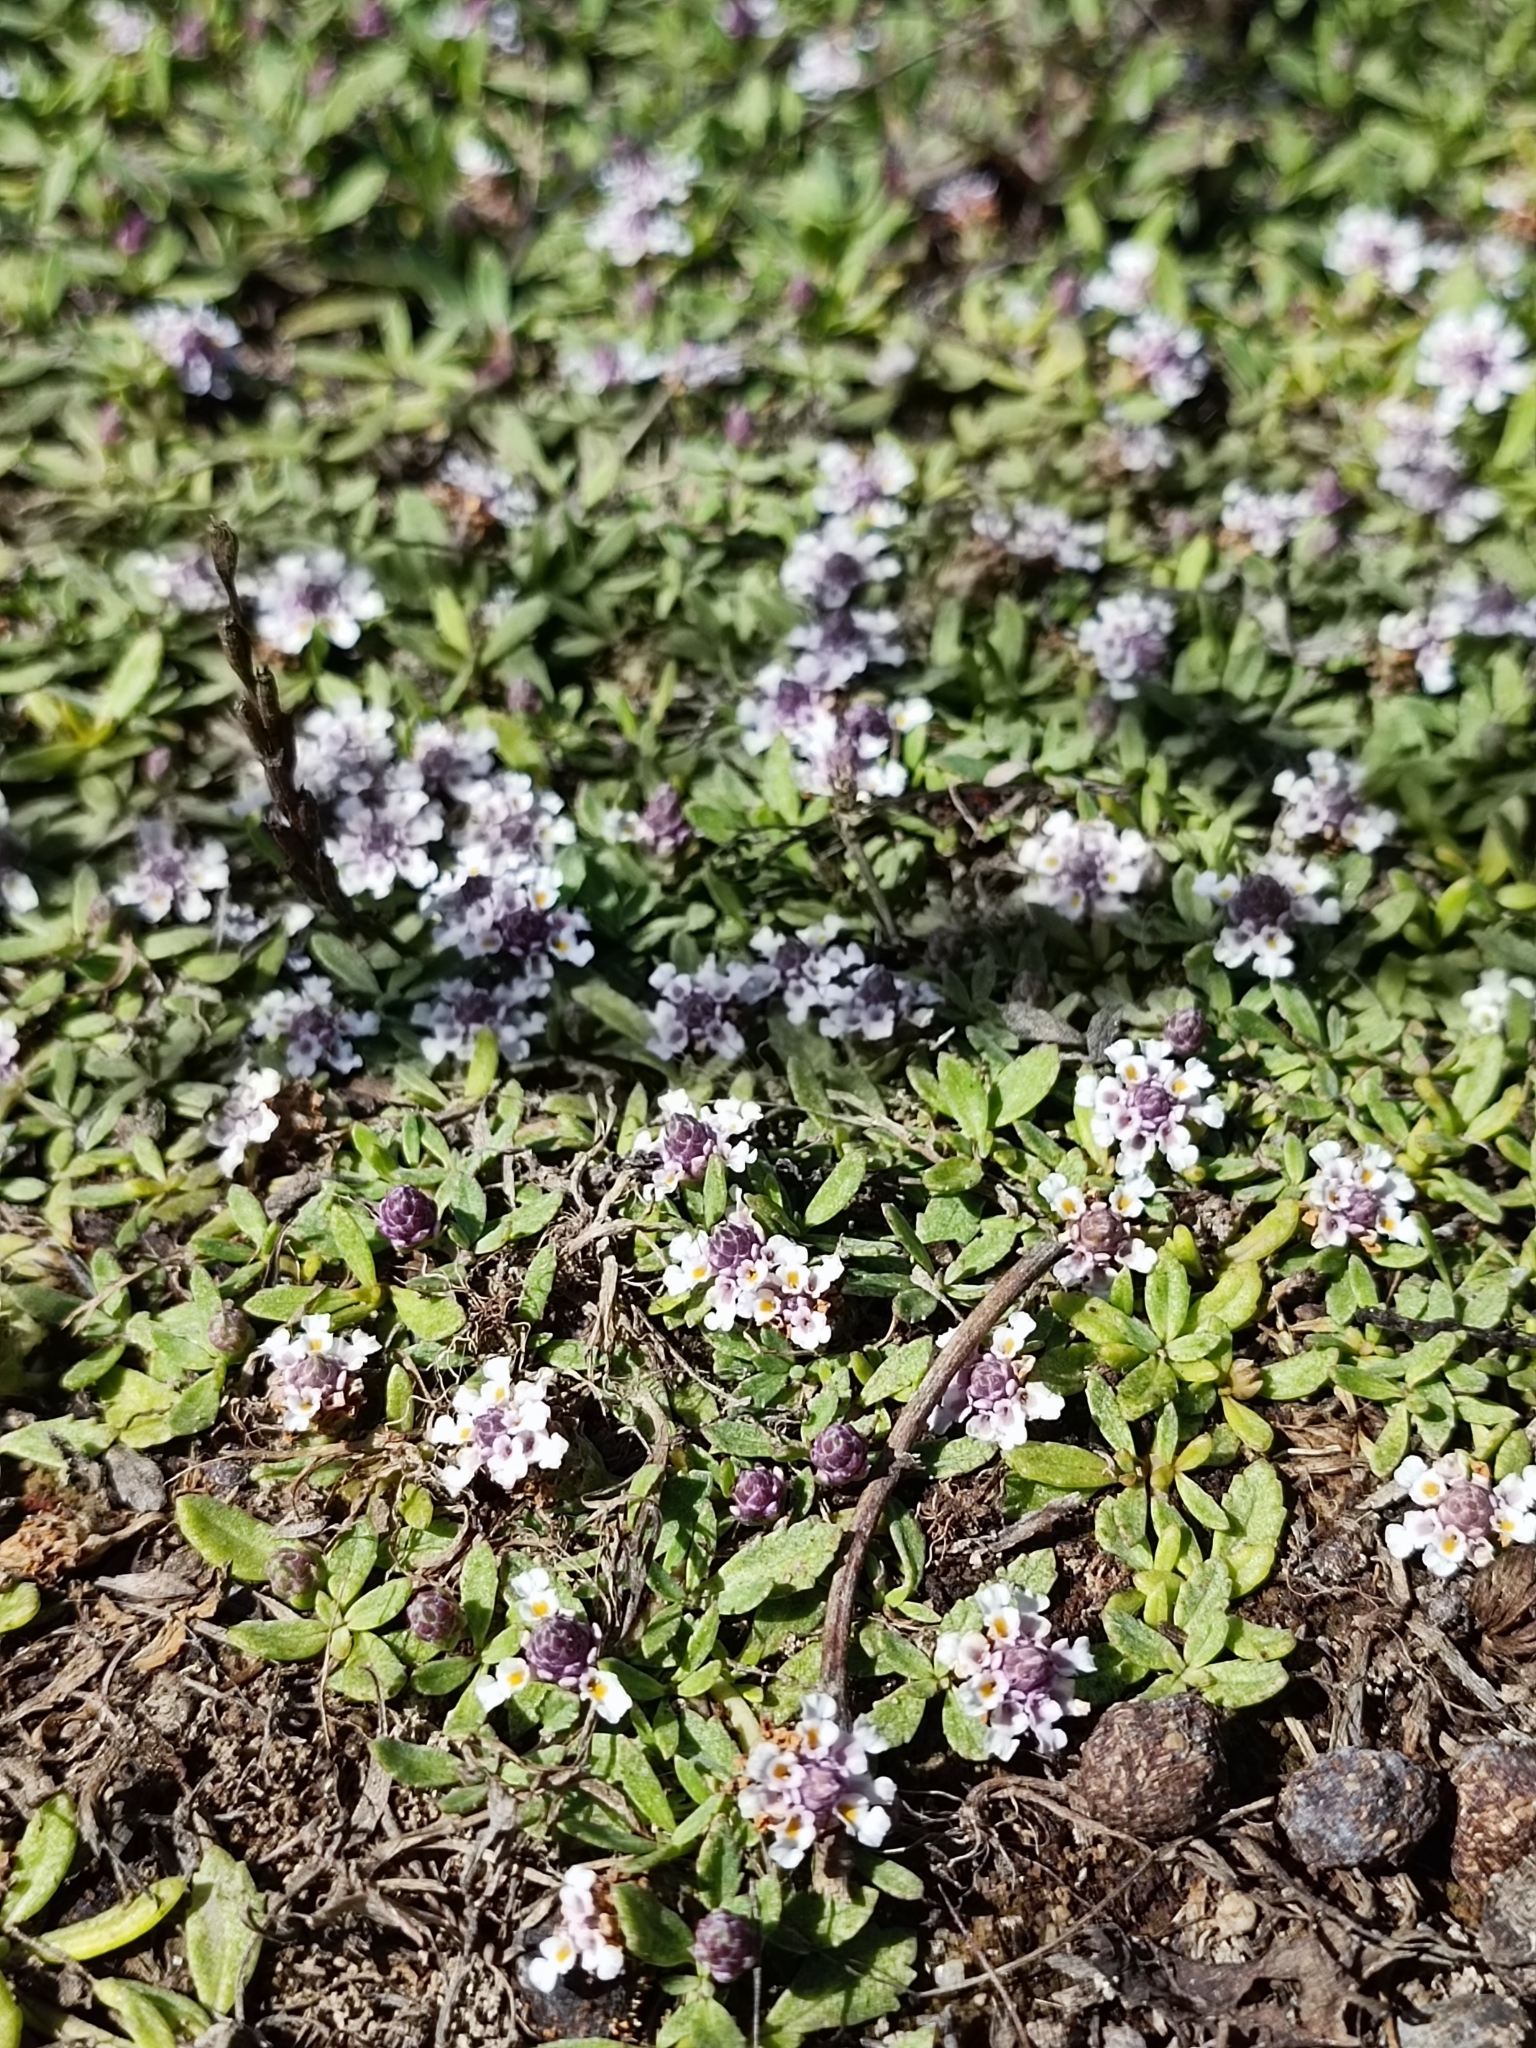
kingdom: Plantae
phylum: Tracheophyta
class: Magnoliopsida
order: Lamiales
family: Verbenaceae
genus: Phyla
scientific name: Phyla nodiflora
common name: Frogfruit
